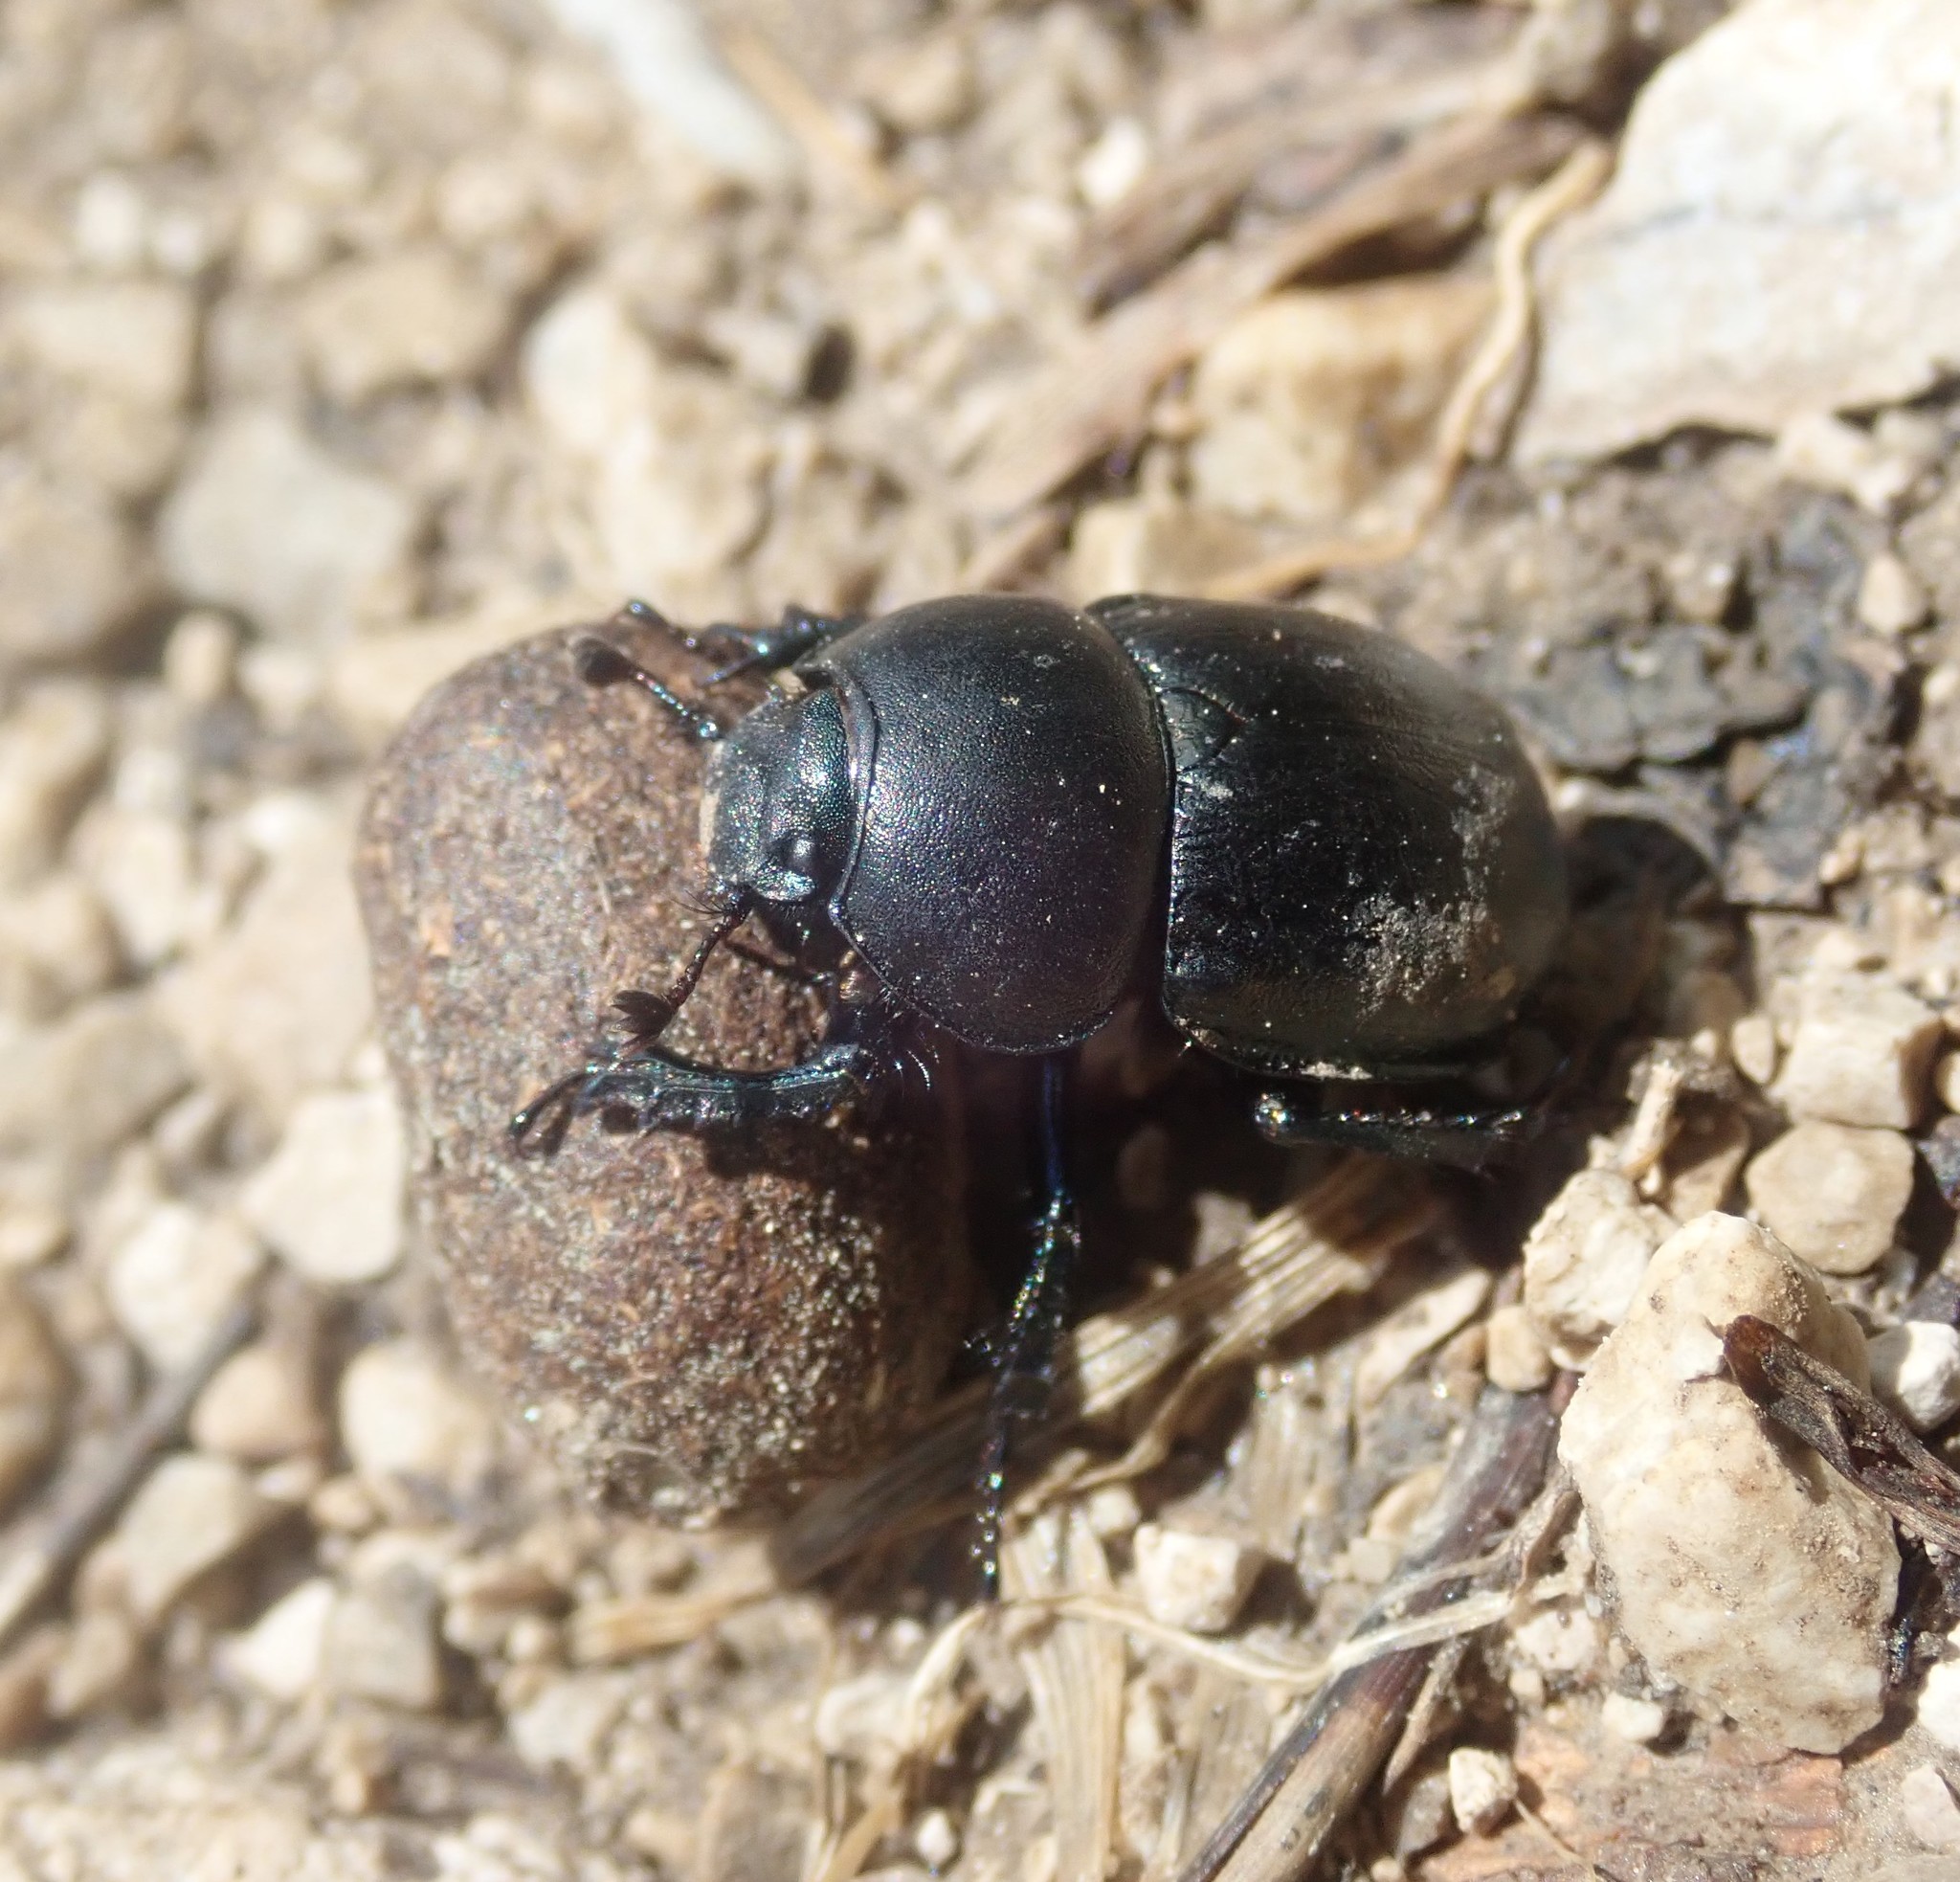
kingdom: Animalia
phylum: Arthropoda
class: Insecta
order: Coleoptera
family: Geotrupidae
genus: Anoplotrupes
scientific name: Anoplotrupes stercorosus
